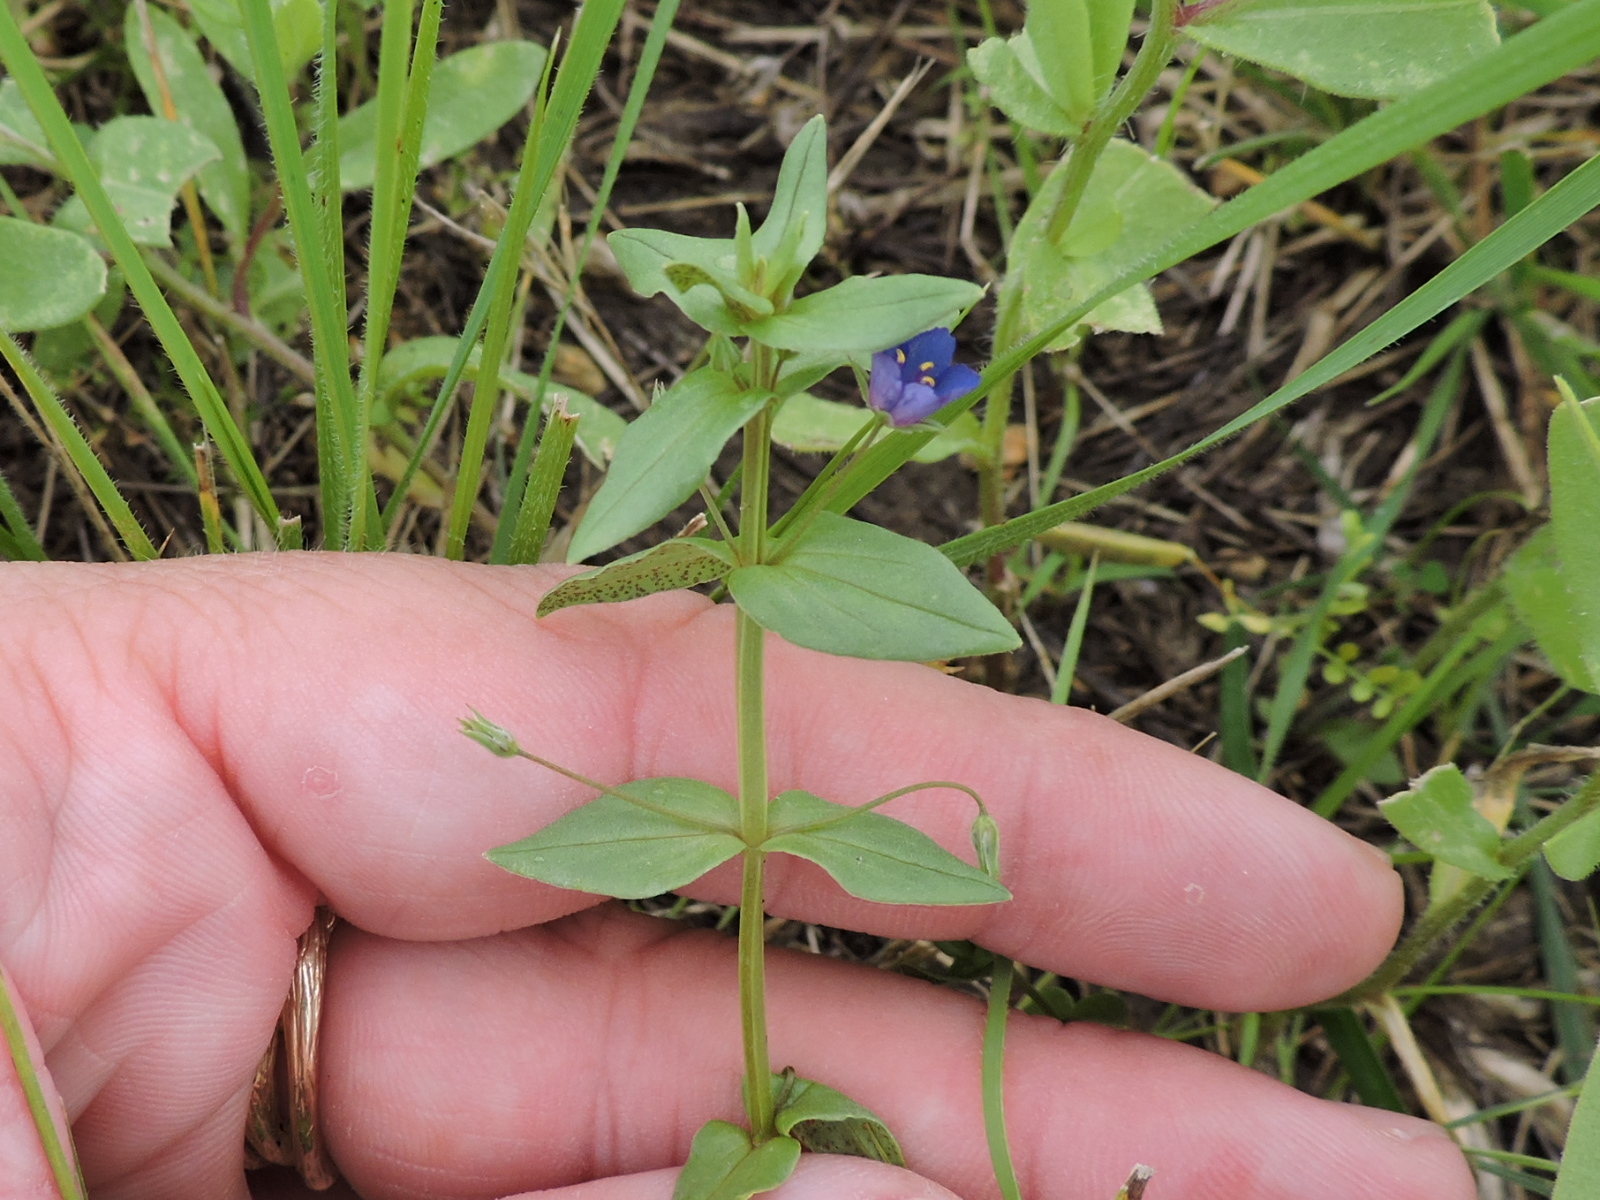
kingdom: Plantae
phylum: Tracheophyta
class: Magnoliopsida
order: Ericales
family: Primulaceae
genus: Lysimachia
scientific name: Lysimachia arvensis
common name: Scarlet pimpernel
